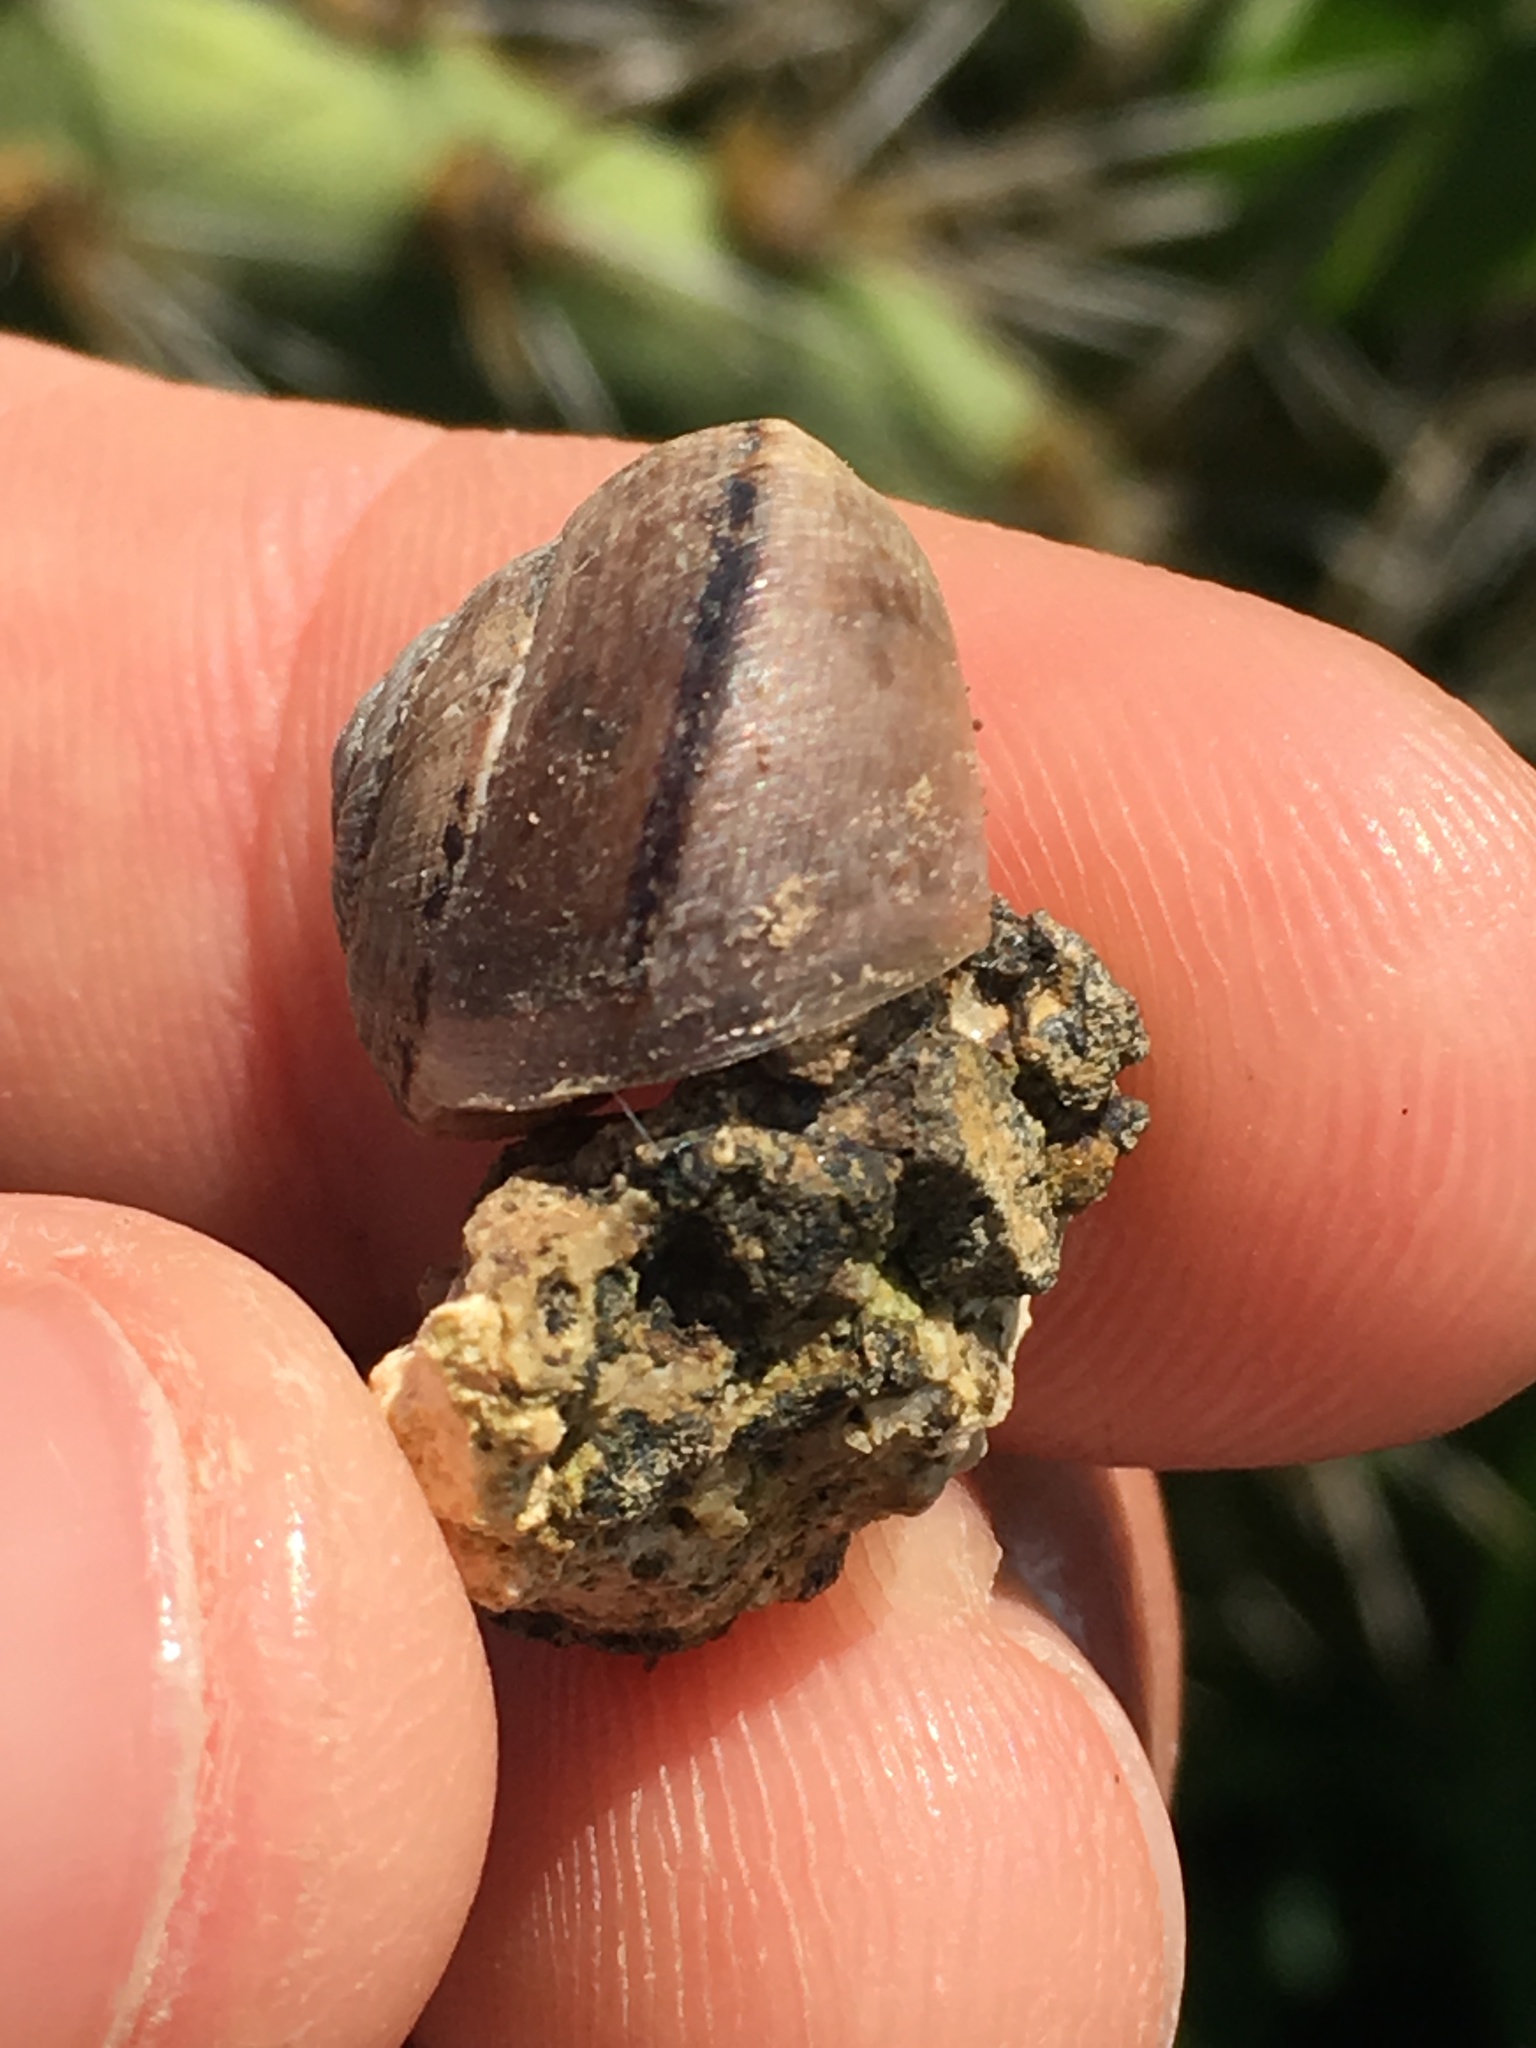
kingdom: Animalia
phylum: Mollusca
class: Gastropoda
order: Stylommatophora
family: Xanthonychidae
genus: Xerarionta
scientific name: Xerarionta tryoni
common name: Bicolor cactus snail
